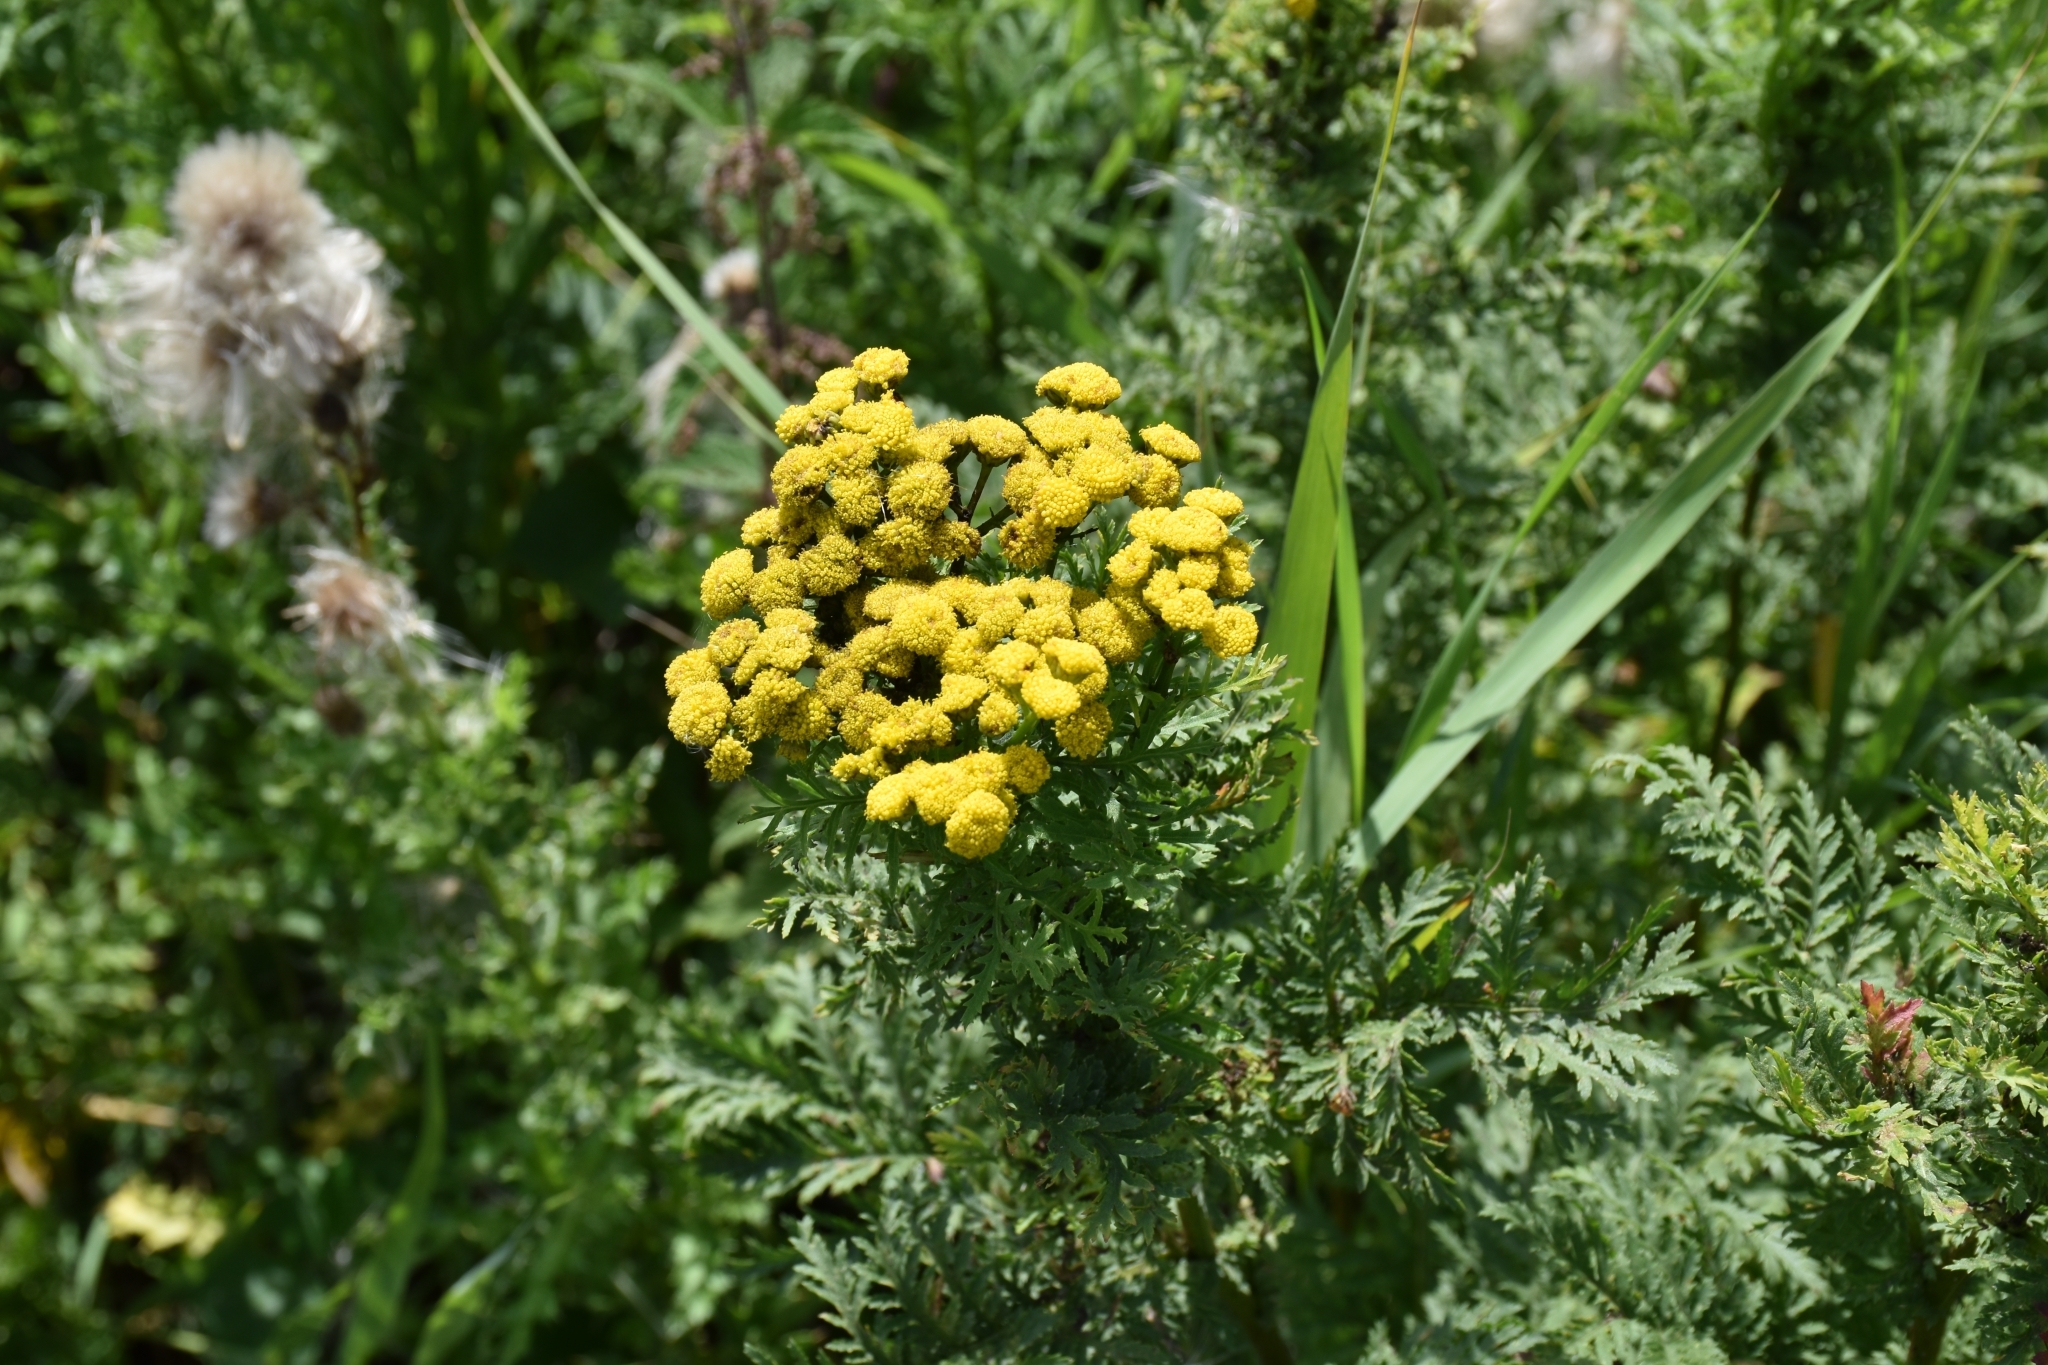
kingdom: Plantae
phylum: Tracheophyta
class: Magnoliopsida
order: Asterales
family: Asteraceae
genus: Tanacetum
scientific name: Tanacetum vulgare
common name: Common tansy
